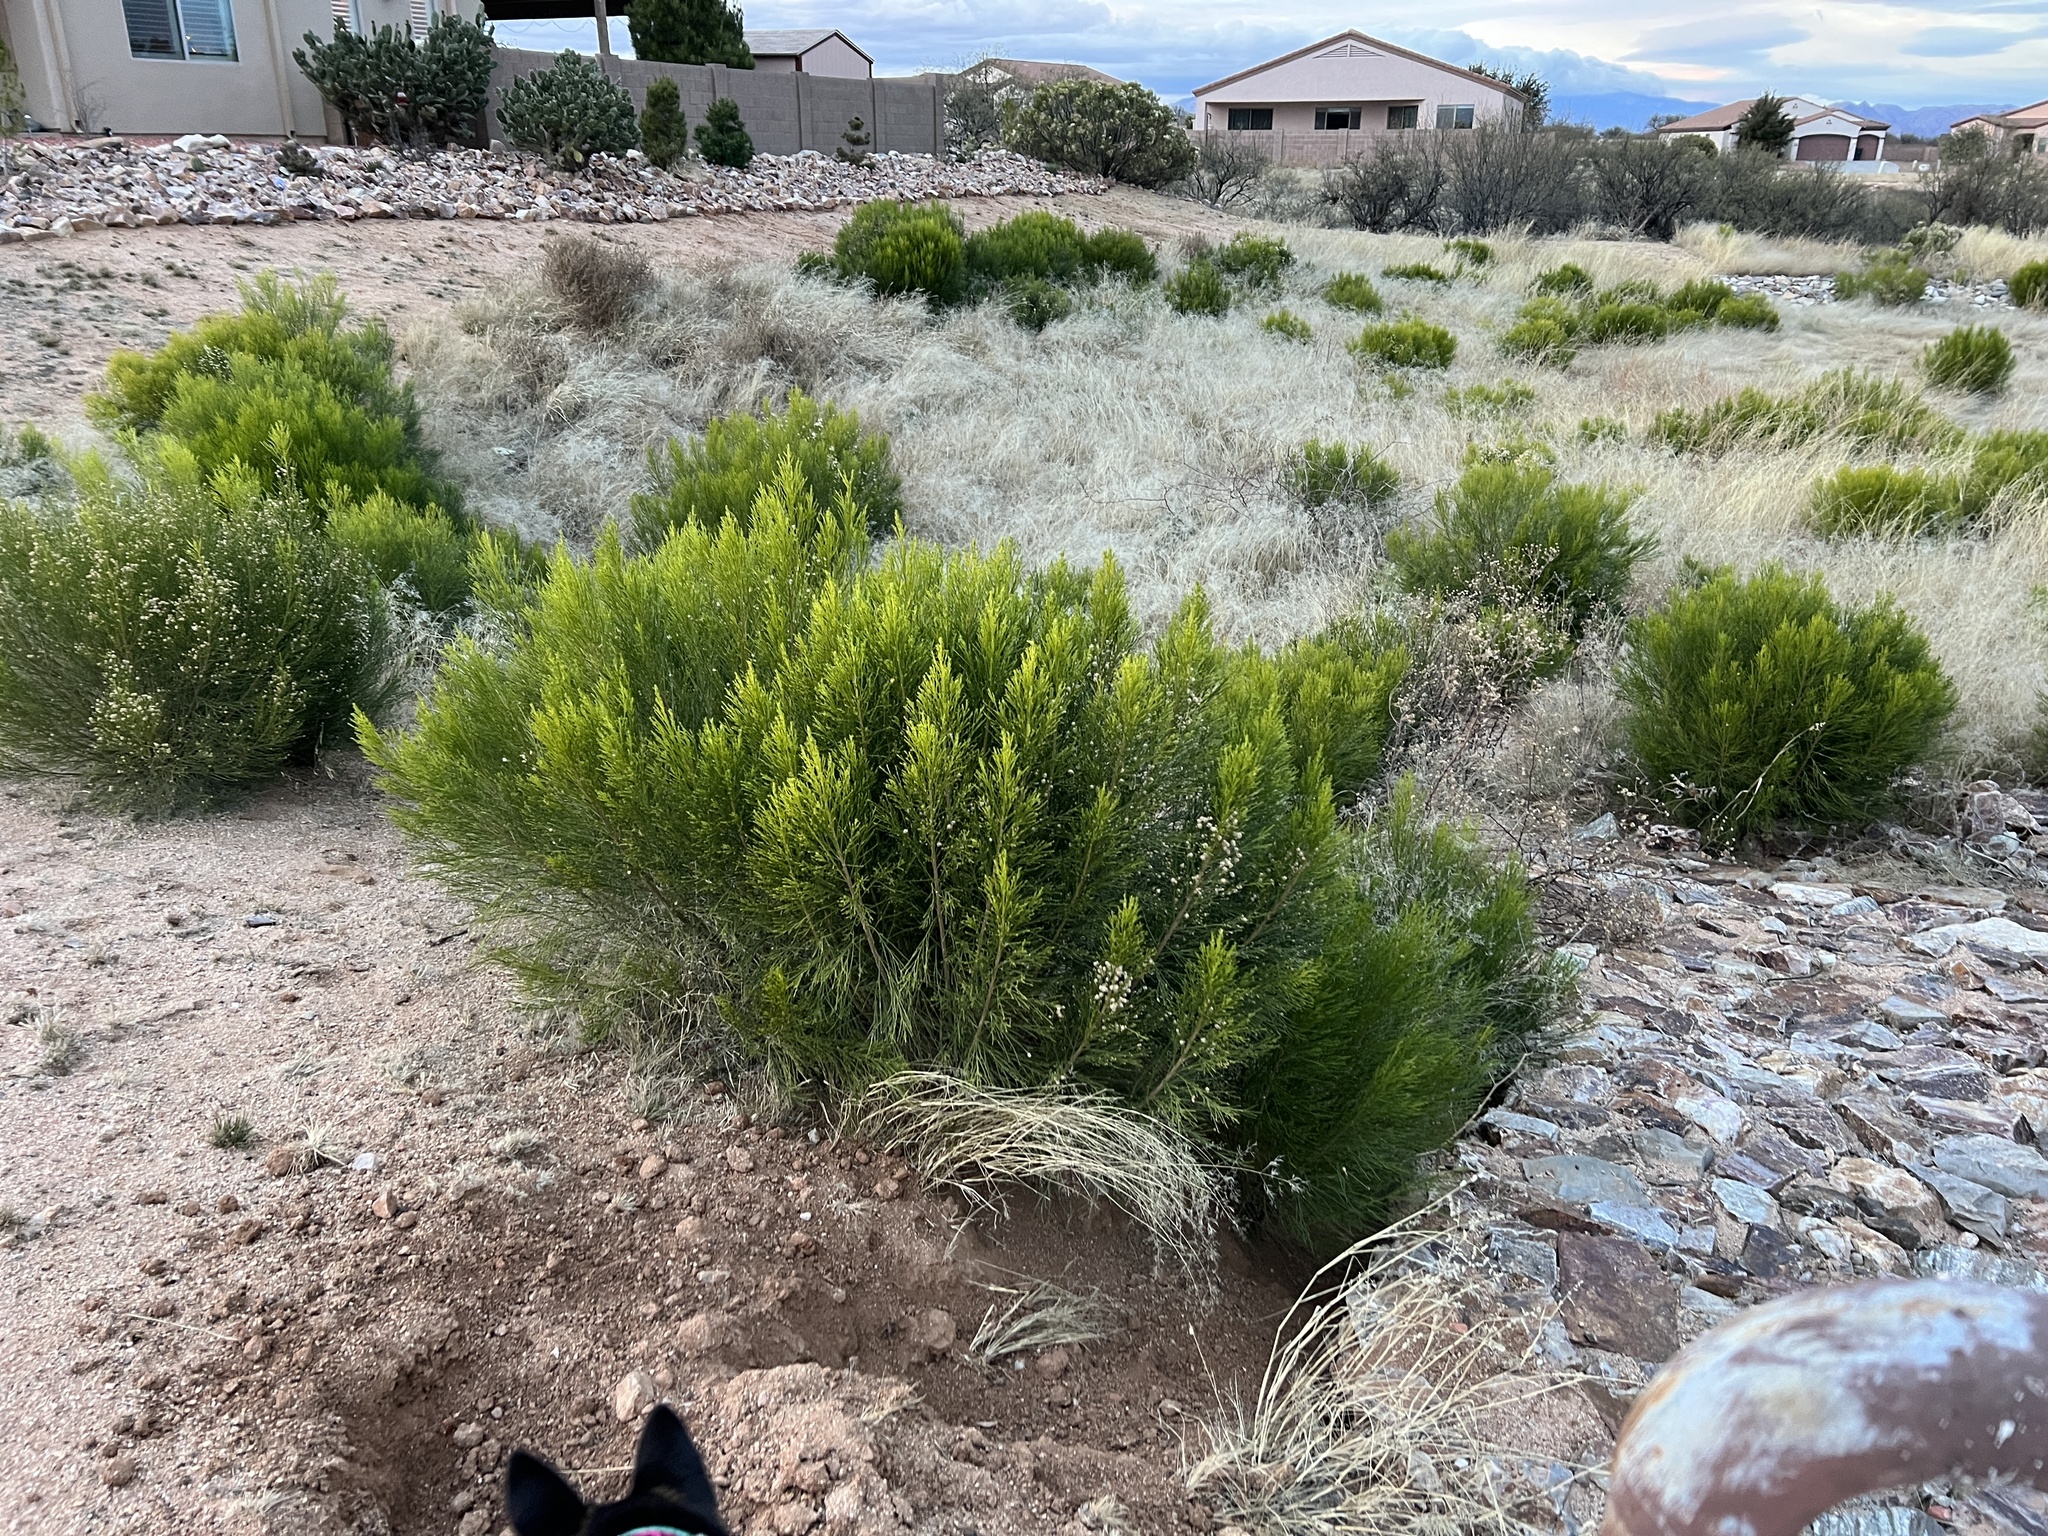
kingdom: Plantae
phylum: Tracheophyta
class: Magnoliopsida
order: Asterales
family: Asteraceae
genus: Baccharis
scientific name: Baccharis sarothroides
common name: Desert-broom
